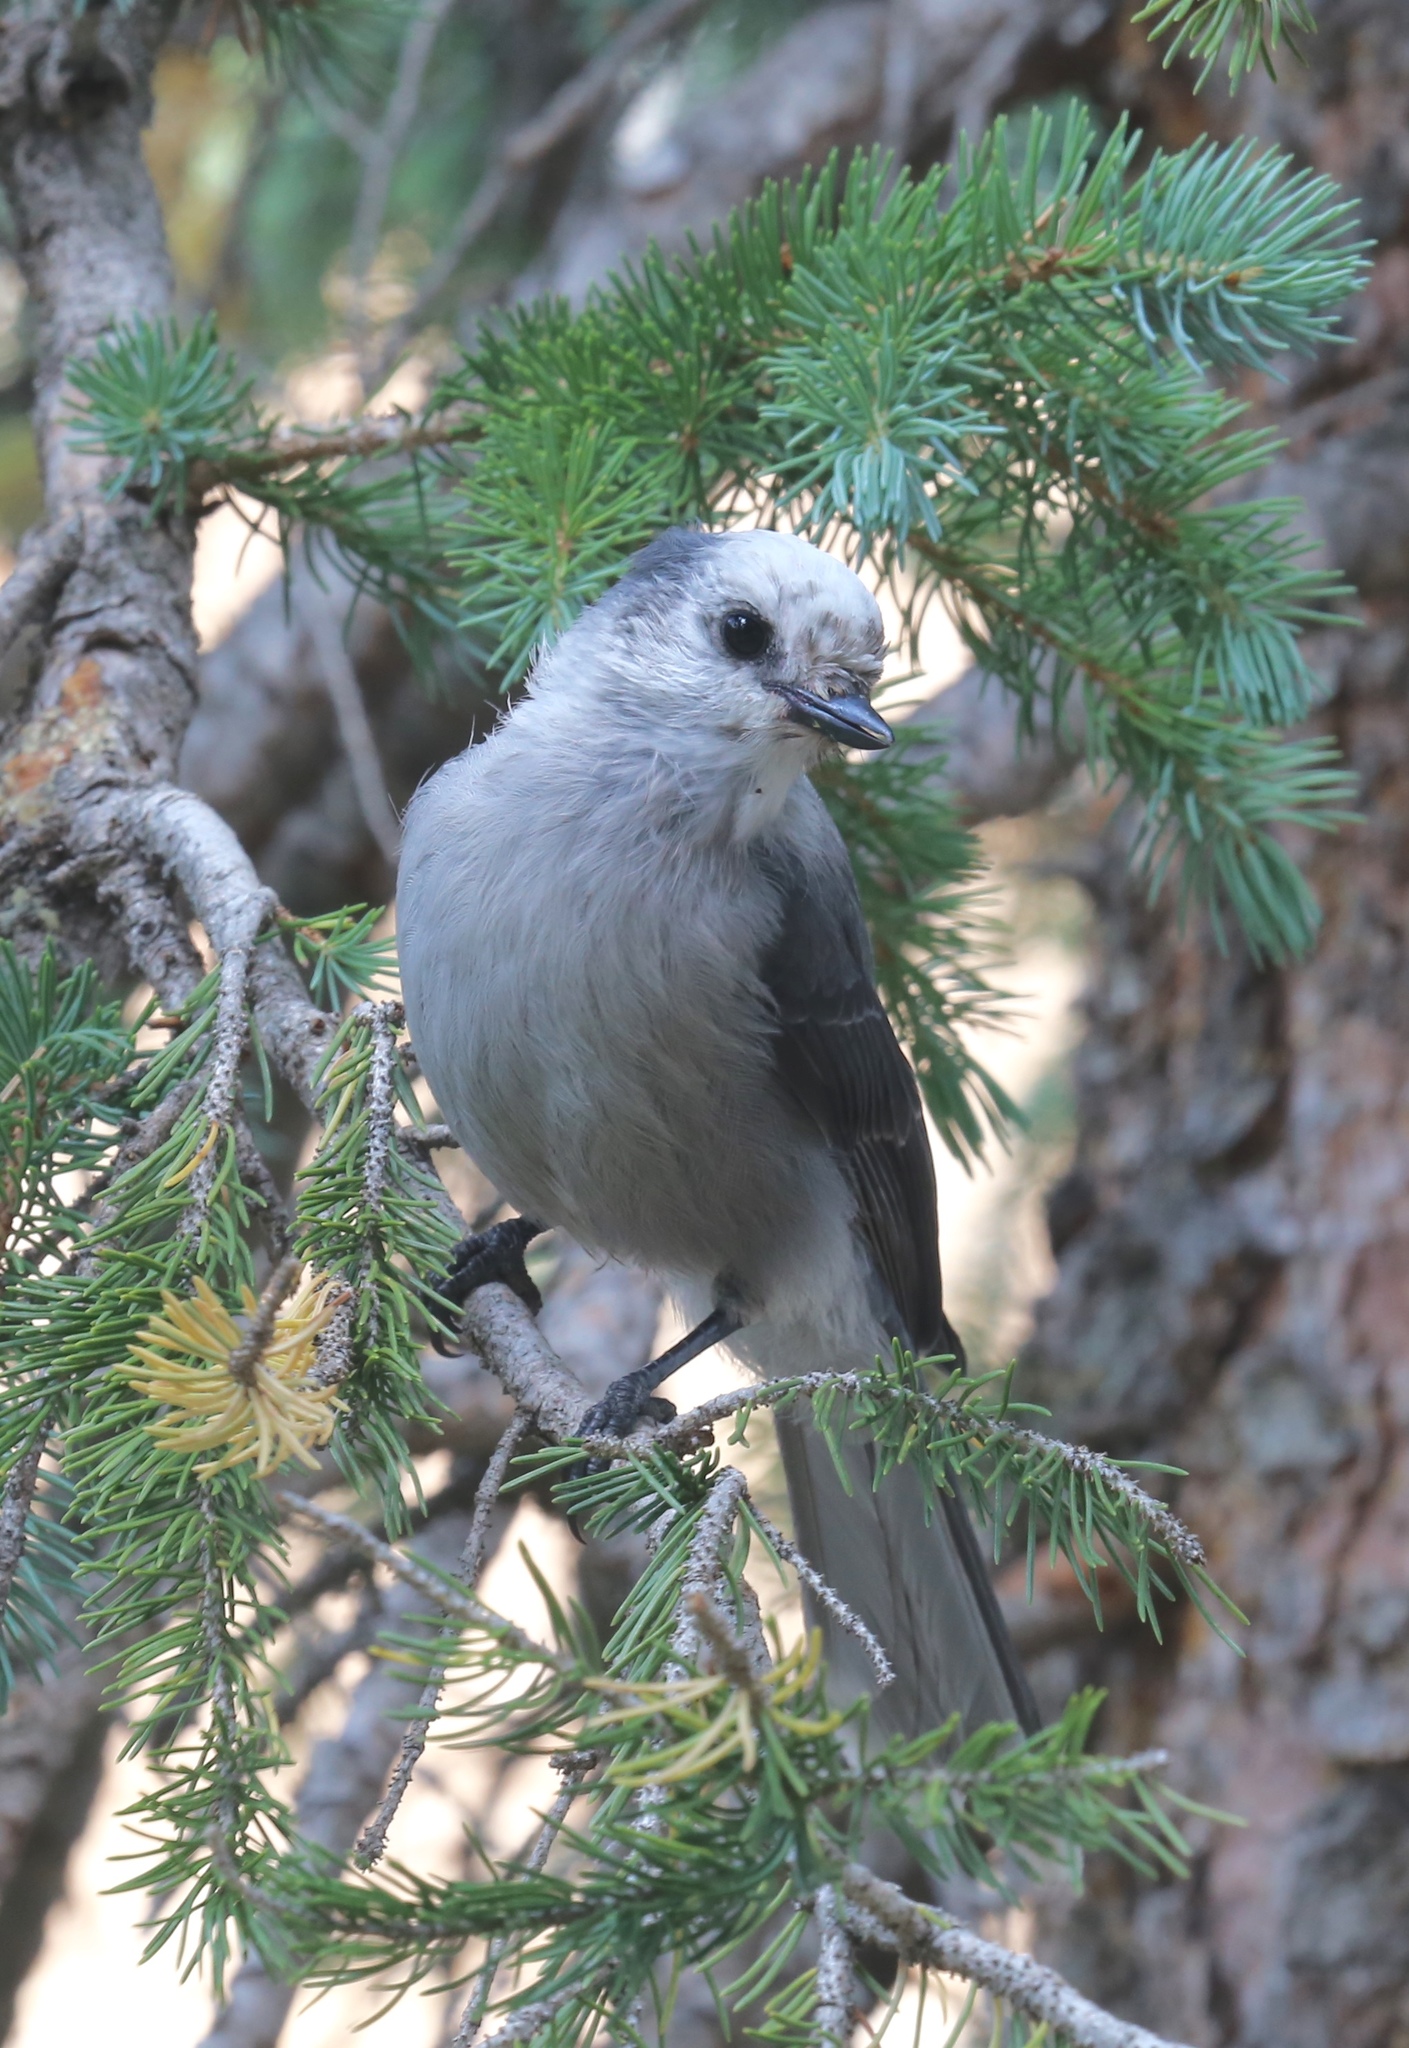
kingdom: Animalia
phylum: Chordata
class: Aves
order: Passeriformes
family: Corvidae
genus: Perisoreus
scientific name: Perisoreus canadensis
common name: Gray jay
